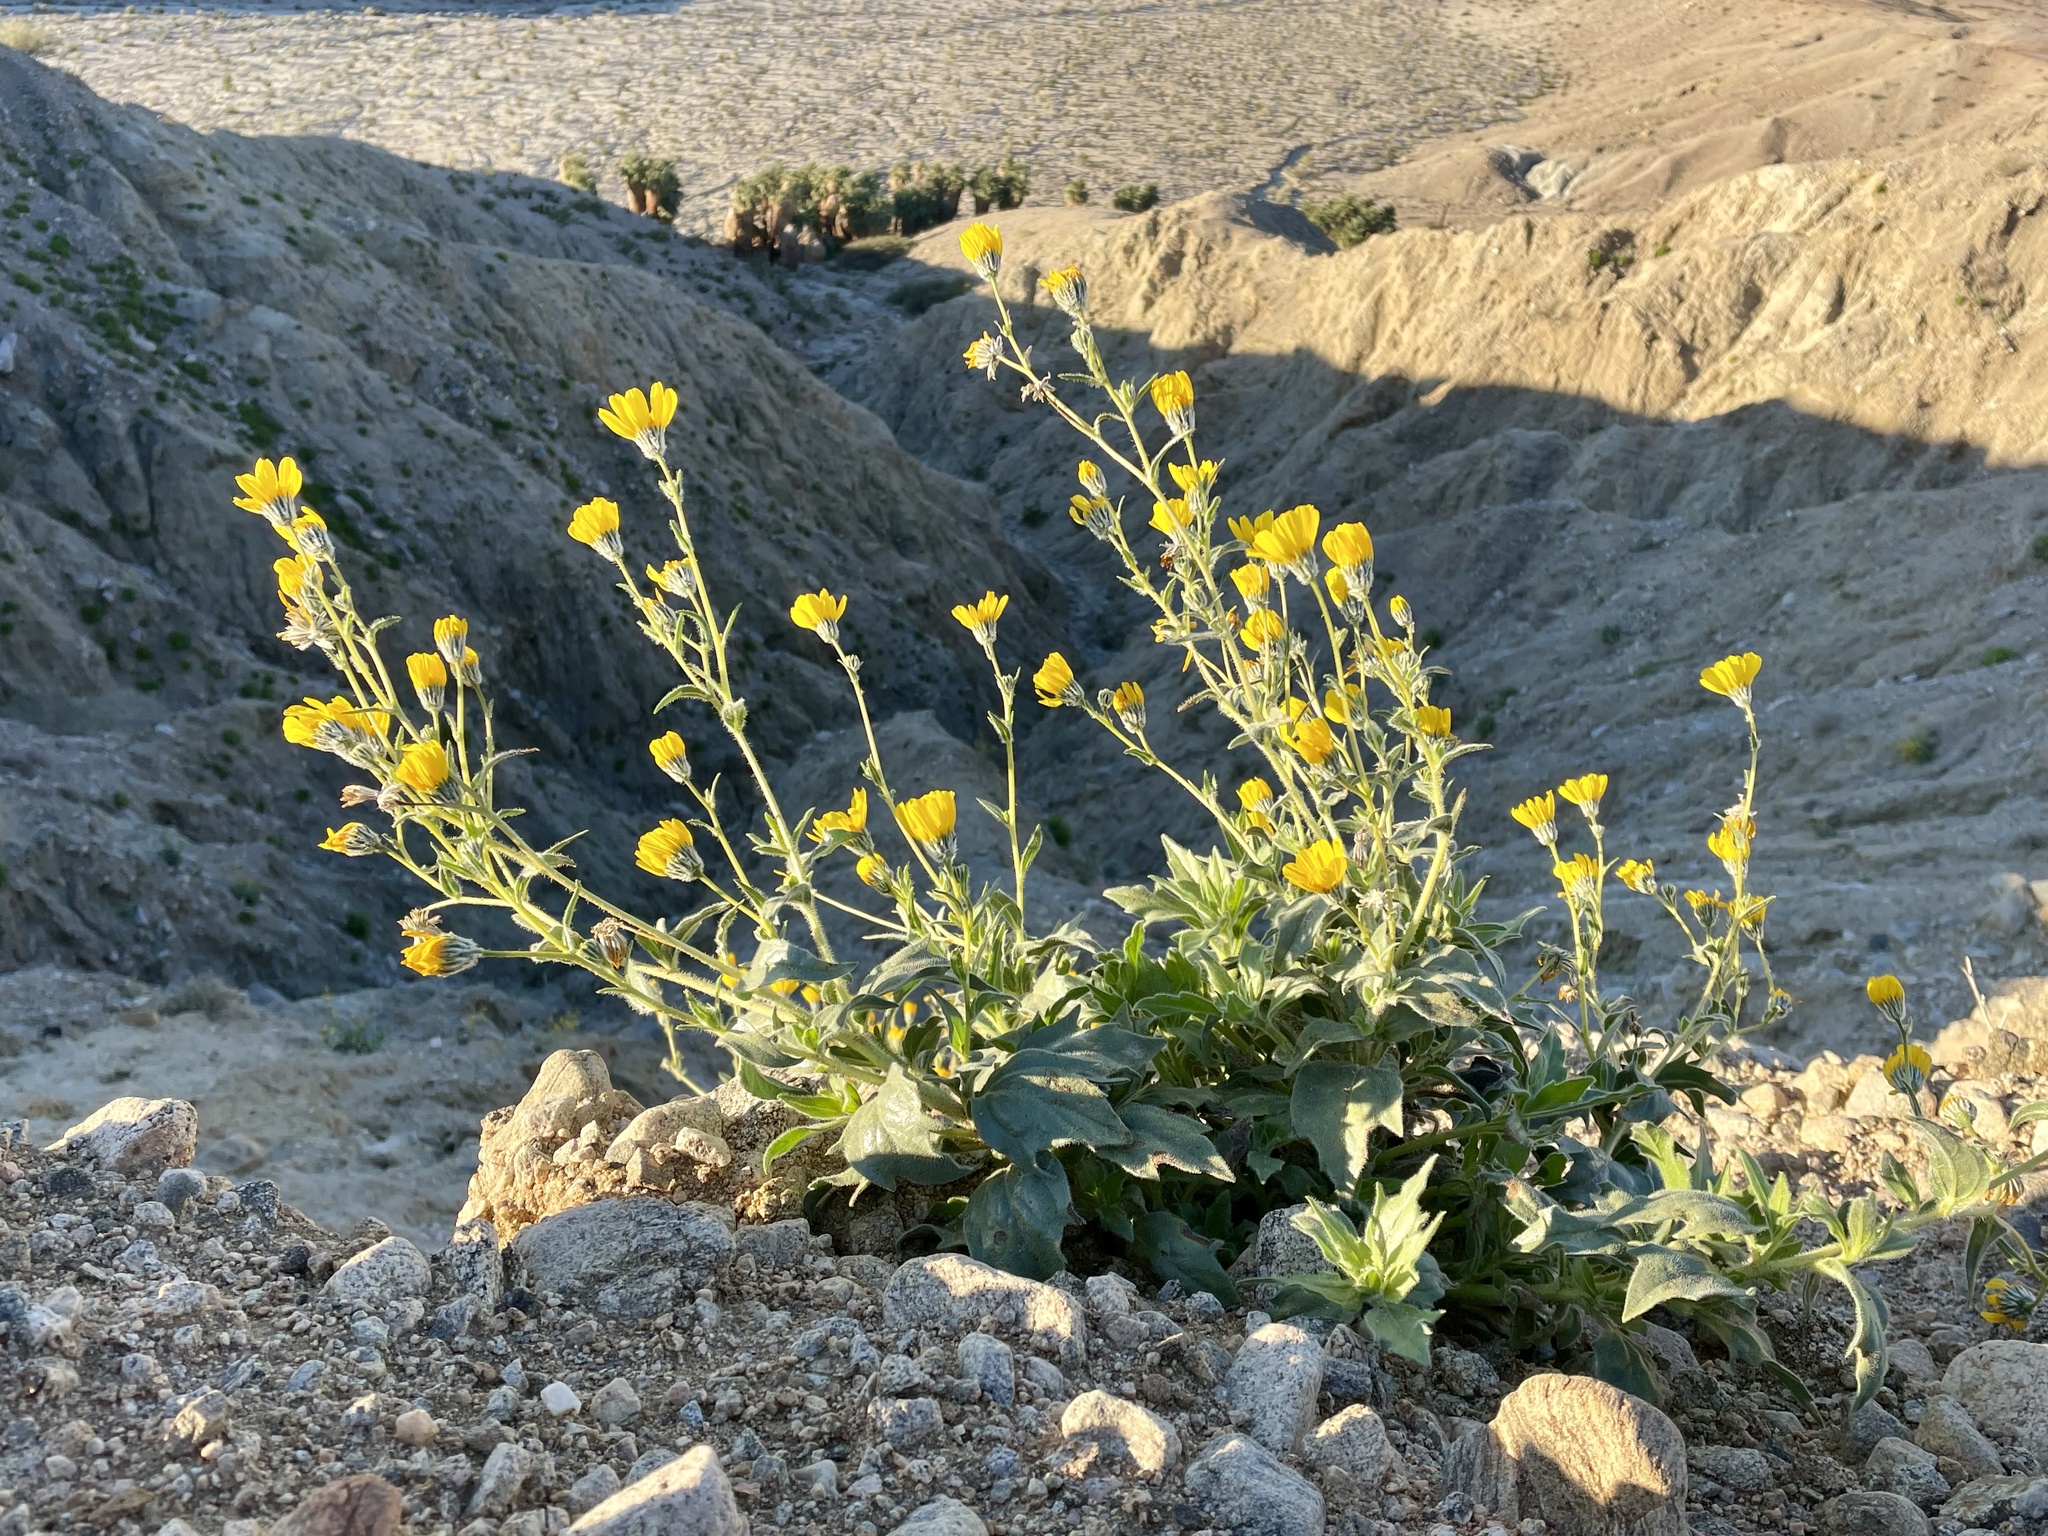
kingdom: Plantae
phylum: Tracheophyta
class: Magnoliopsida
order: Asterales
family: Asteraceae
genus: Geraea
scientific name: Geraea canescens
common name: Desert-gold
